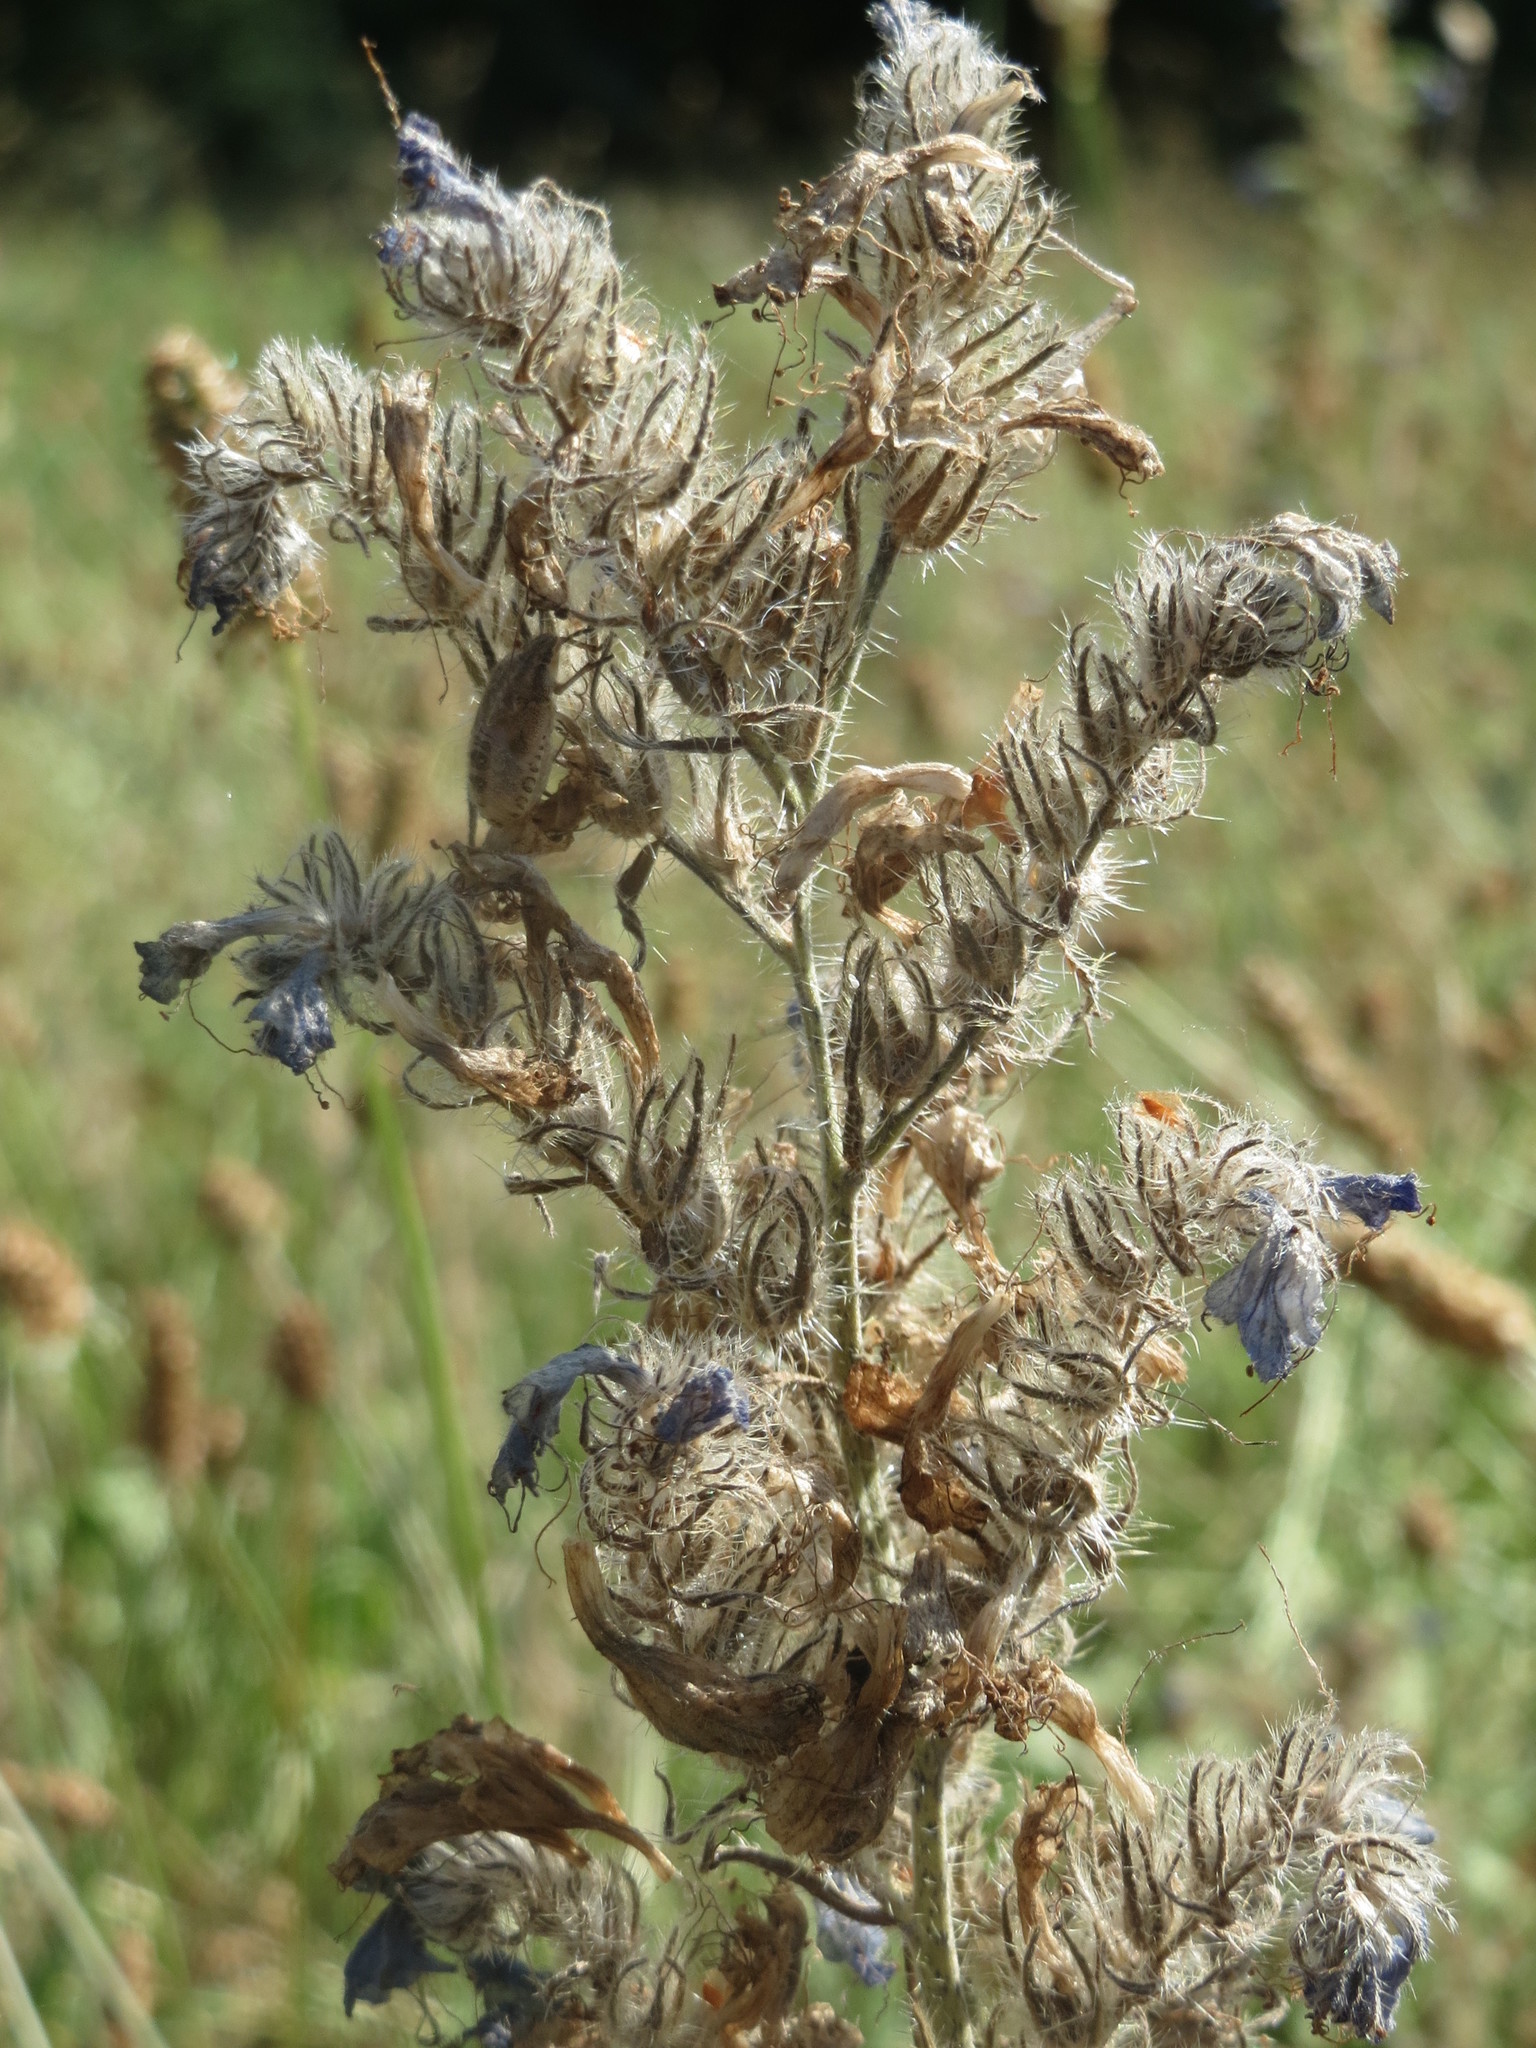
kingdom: Plantae
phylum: Tracheophyta
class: Magnoliopsida
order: Boraginales
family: Boraginaceae
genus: Echium
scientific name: Echium vulgare
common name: Common viper's bugloss
